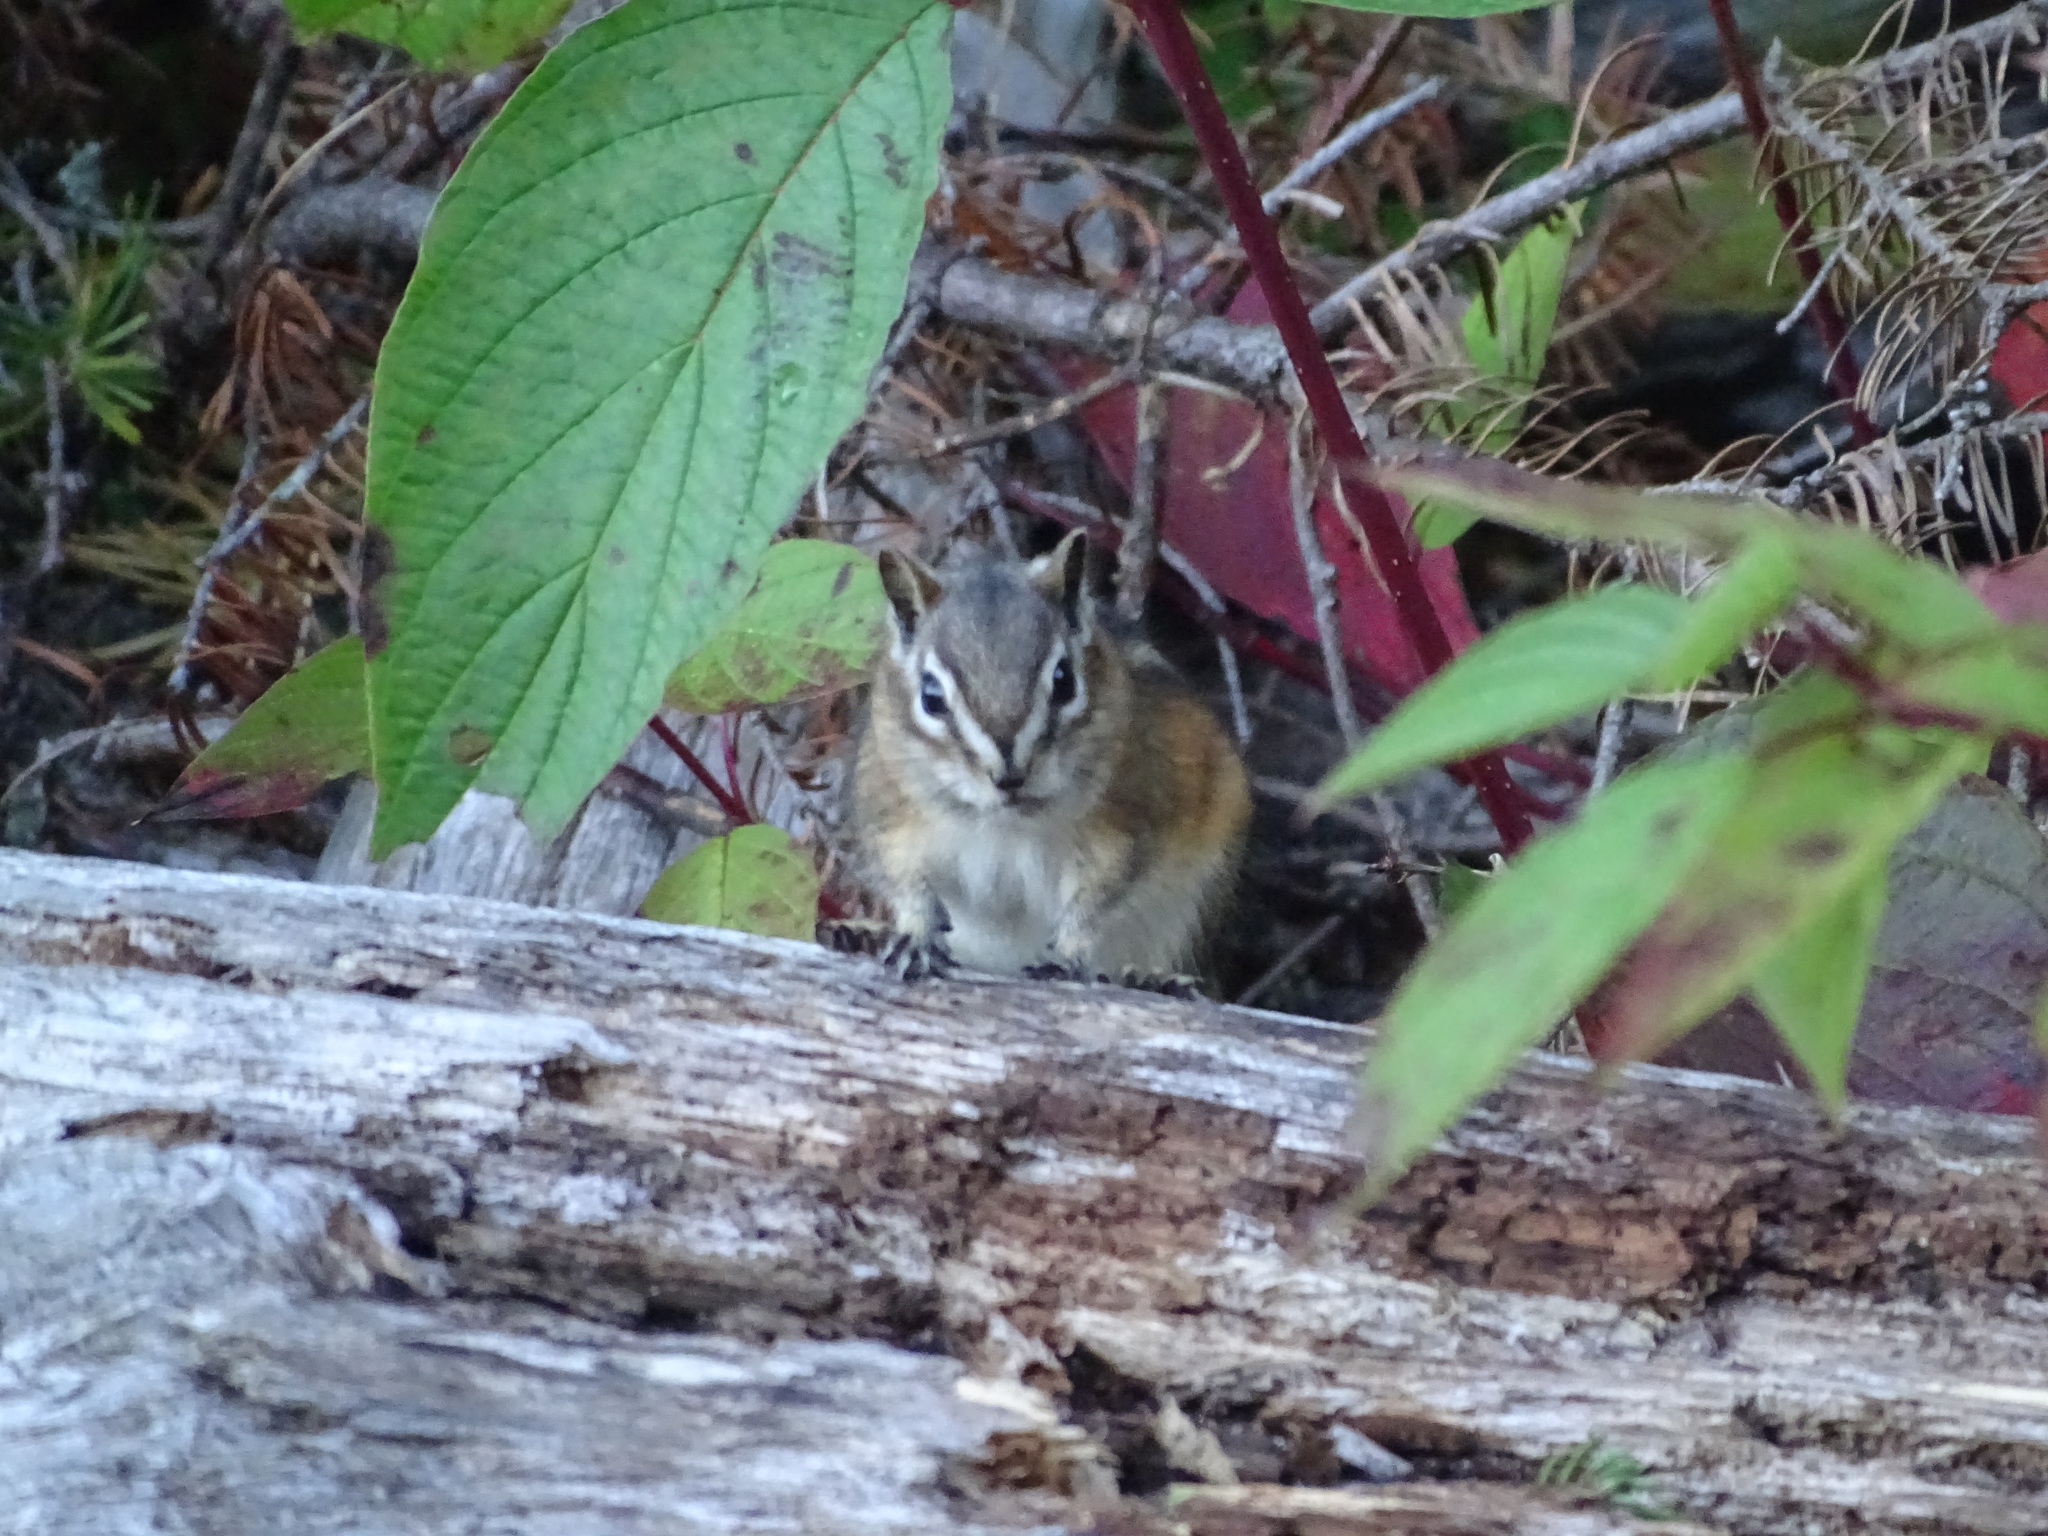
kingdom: Animalia
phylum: Chordata
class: Mammalia
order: Rodentia
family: Sciuridae
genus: Tamias
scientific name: Tamias minimus
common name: Least chipmunk
